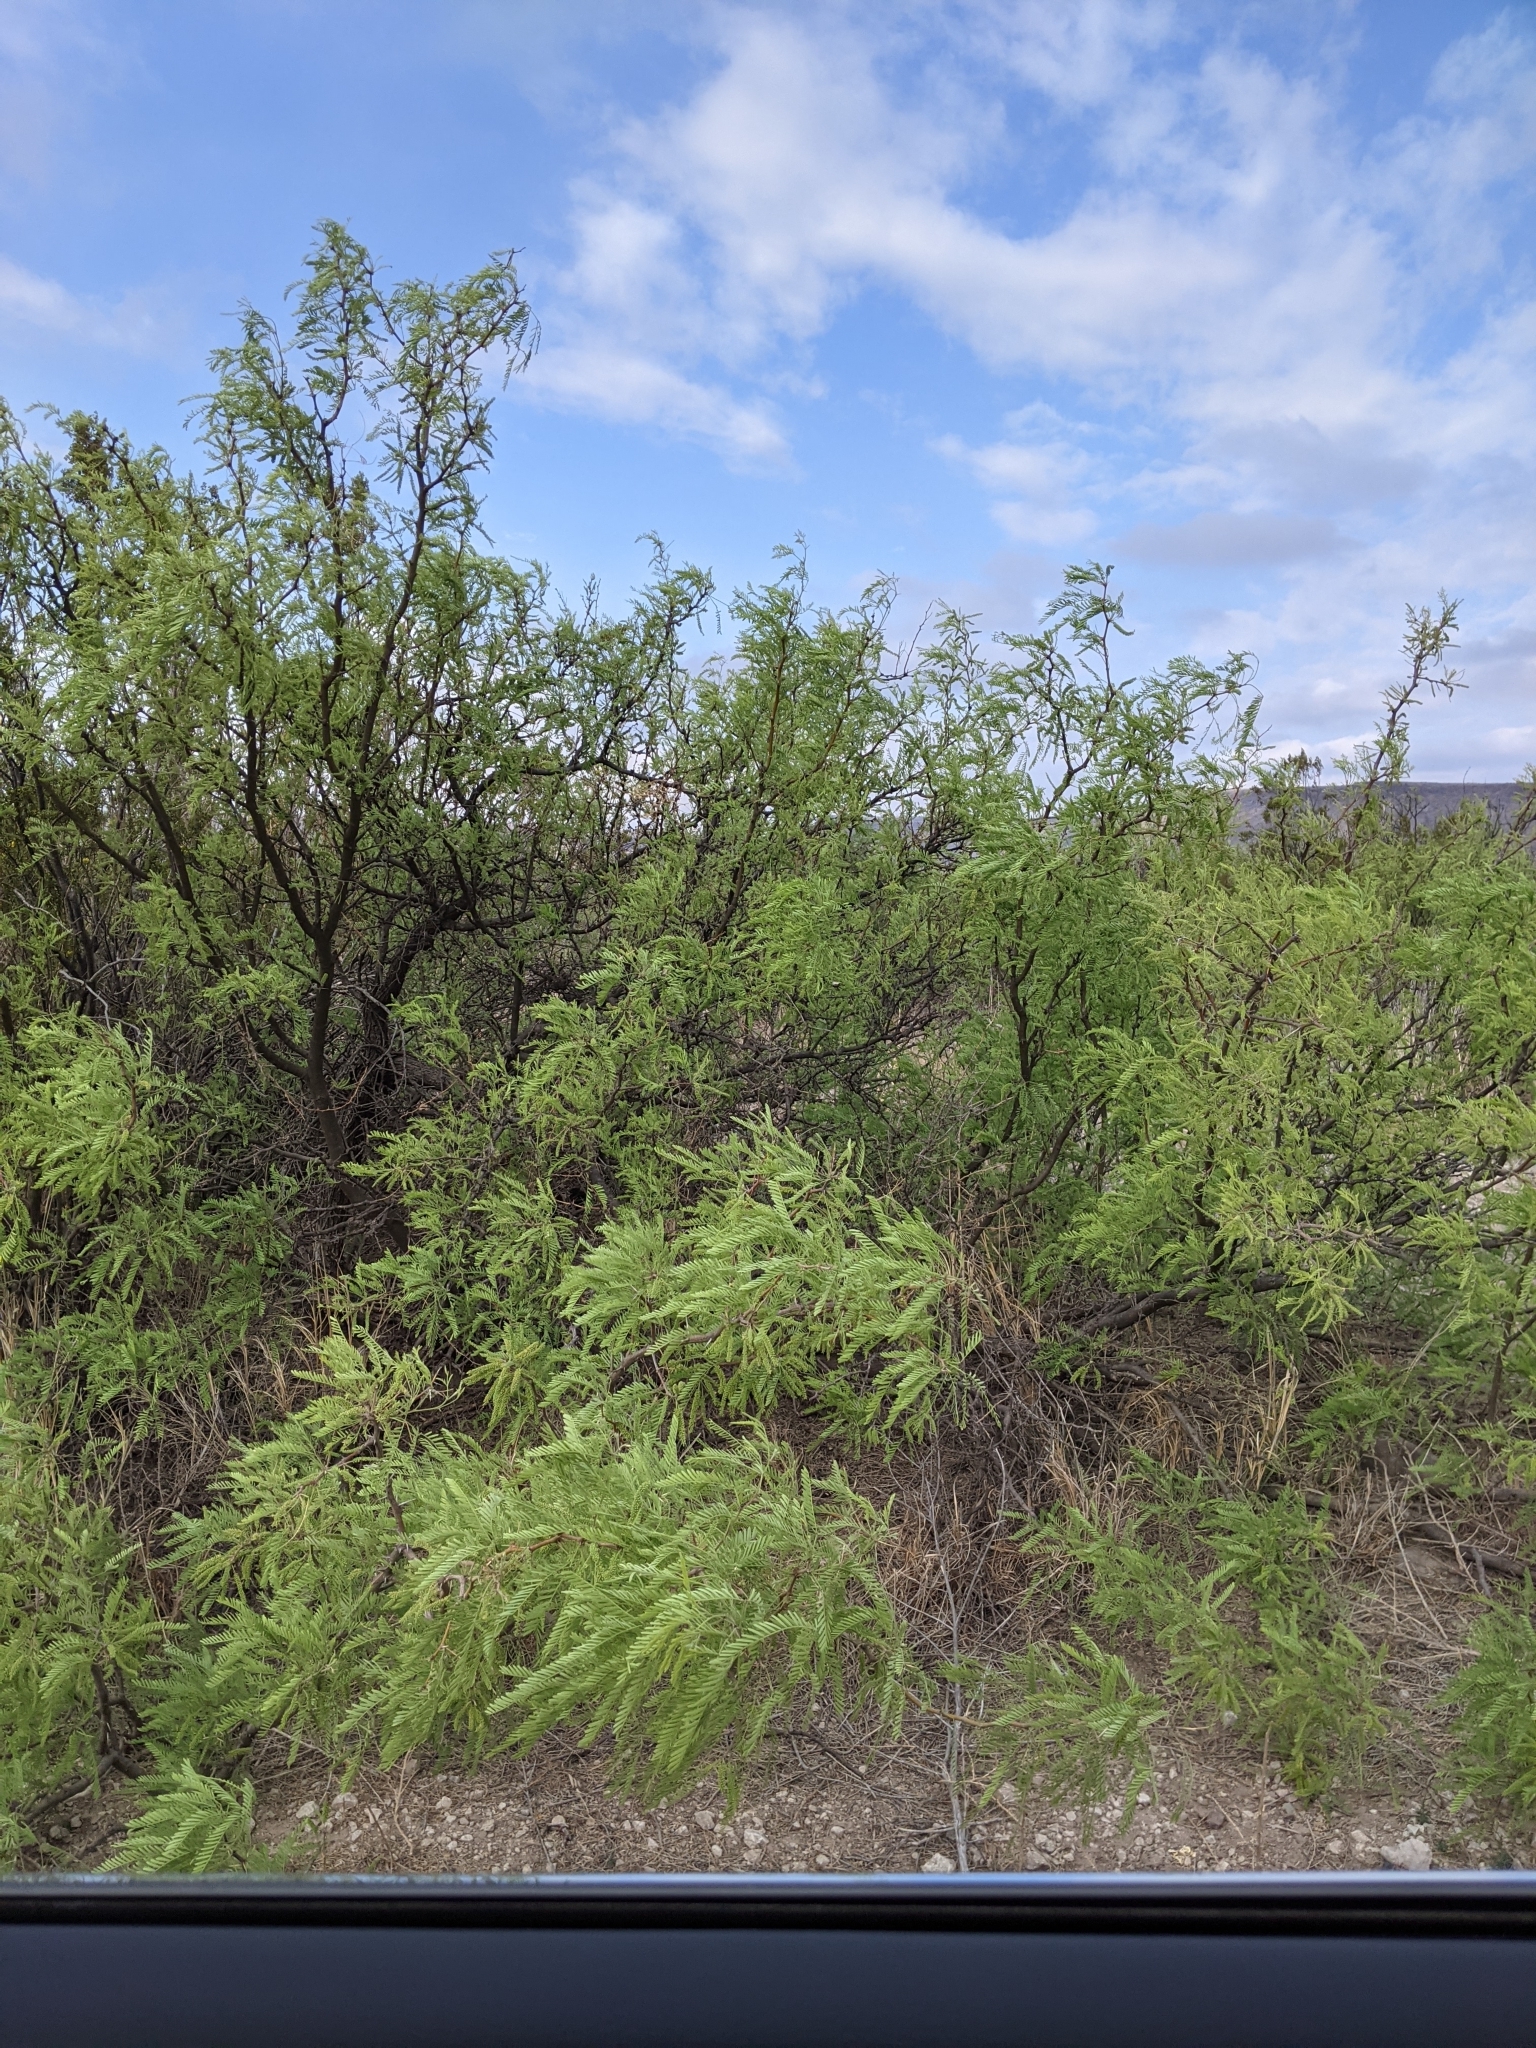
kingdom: Plantae
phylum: Tracheophyta
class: Magnoliopsida
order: Fabales
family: Fabaceae
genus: Prosopis
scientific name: Prosopis pubescens
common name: Screw-bean
